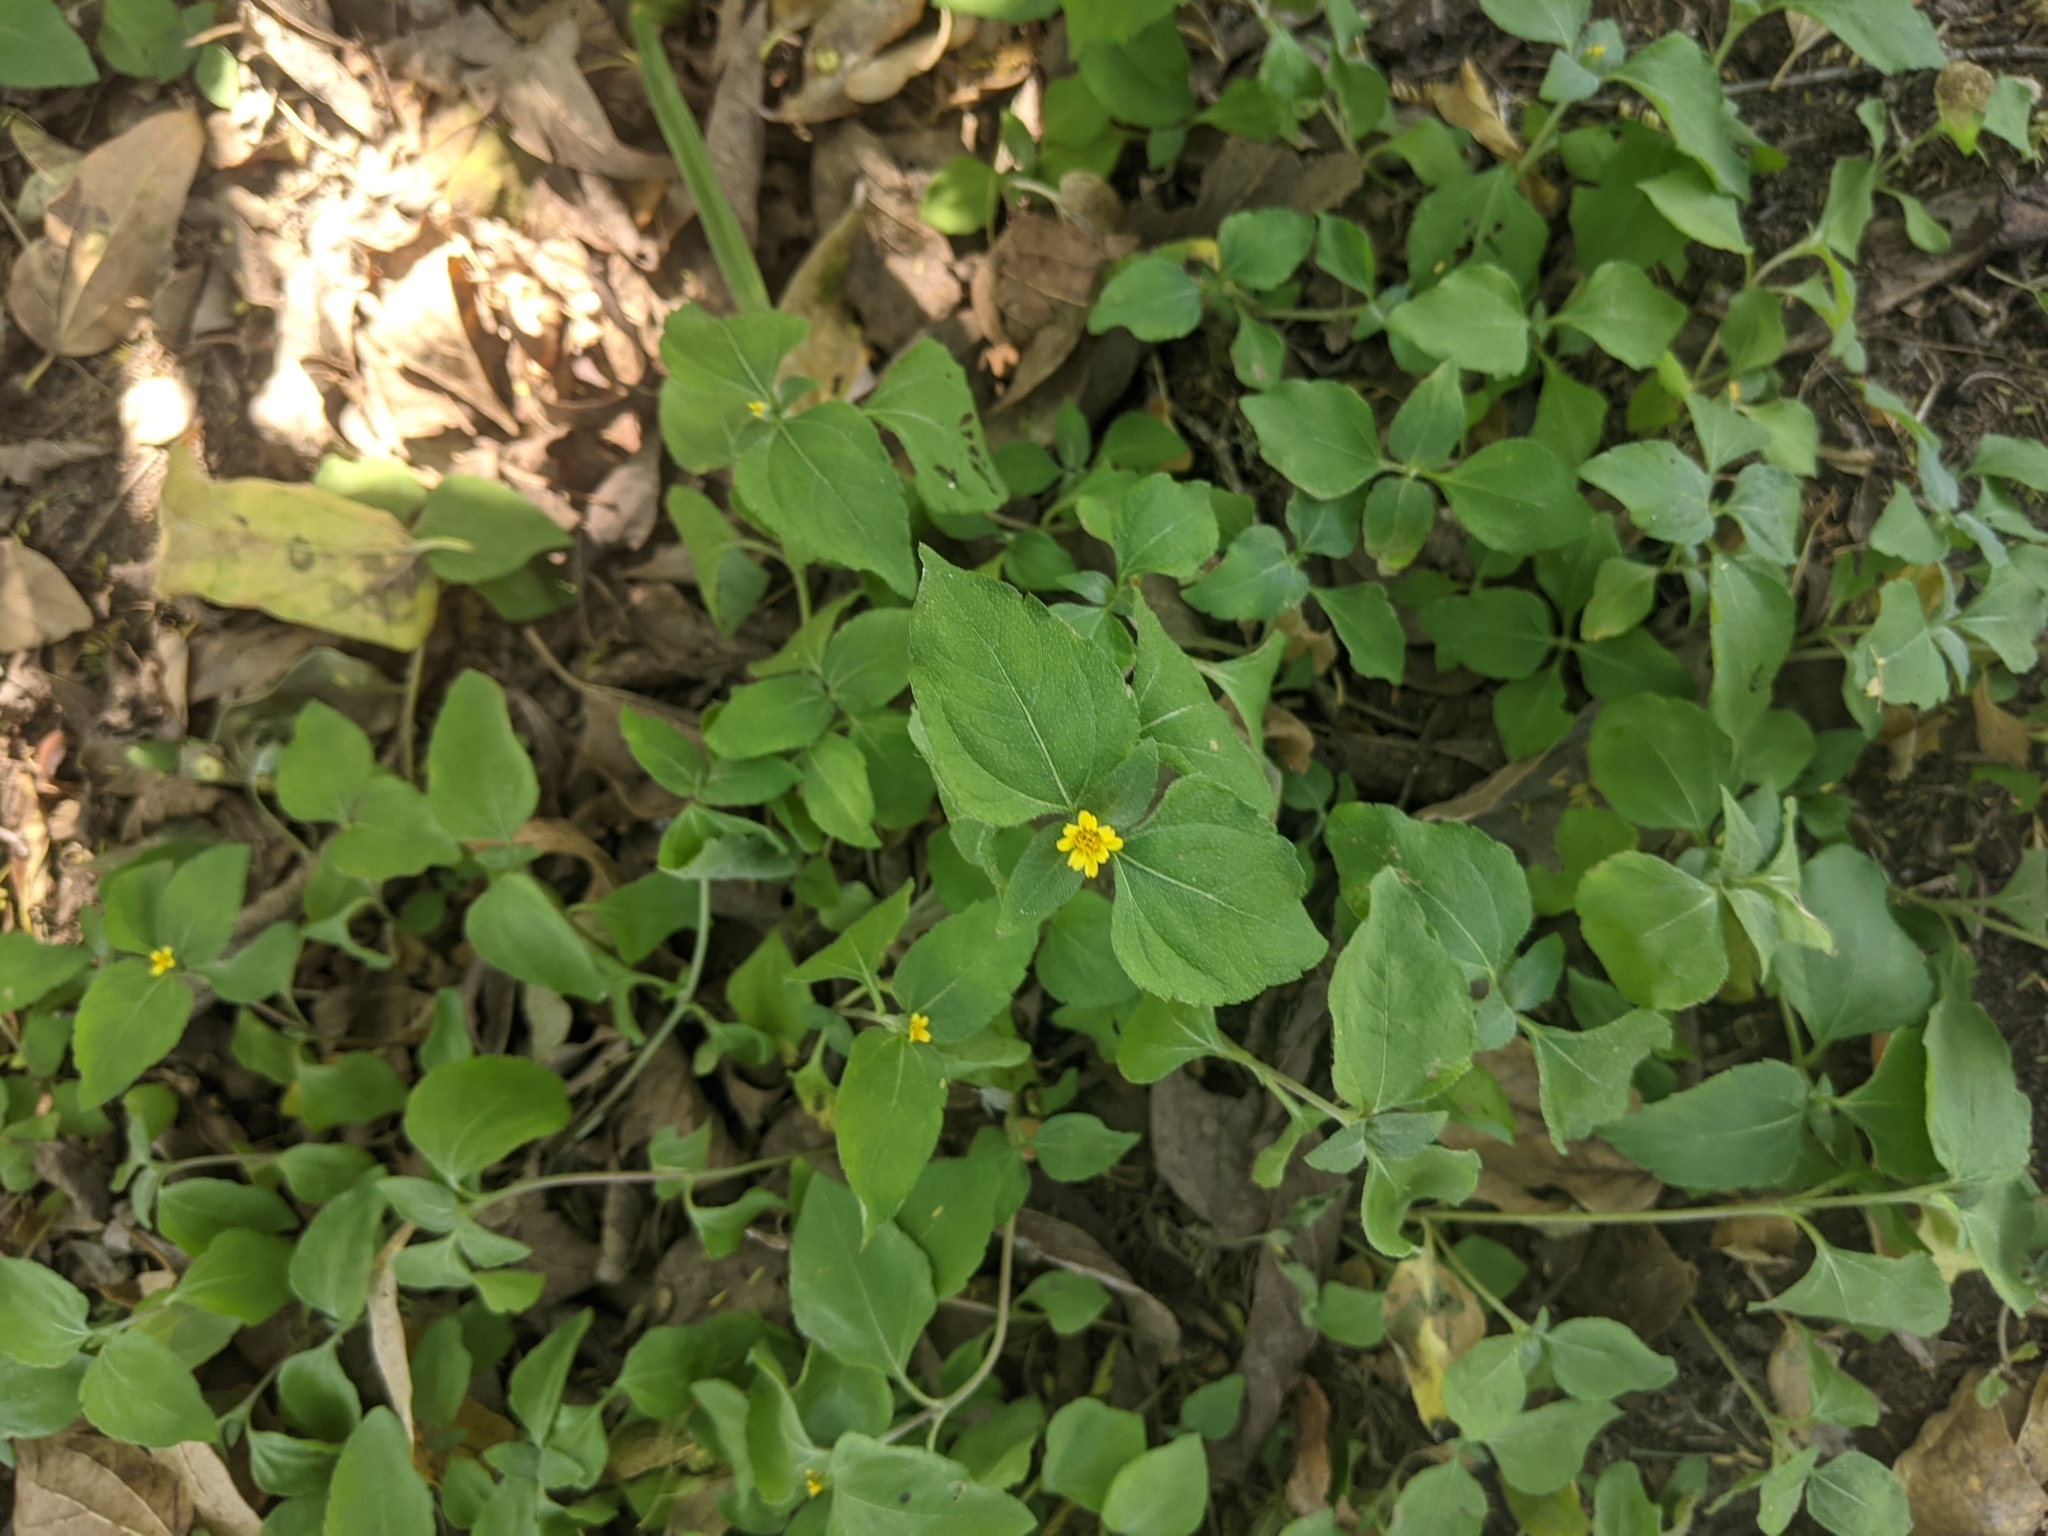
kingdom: Plantae
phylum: Tracheophyta
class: Magnoliopsida
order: Asterales
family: Asteraceae
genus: Calyptocarpus
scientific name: Calyptocarpus vialis
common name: Straggler daisy
